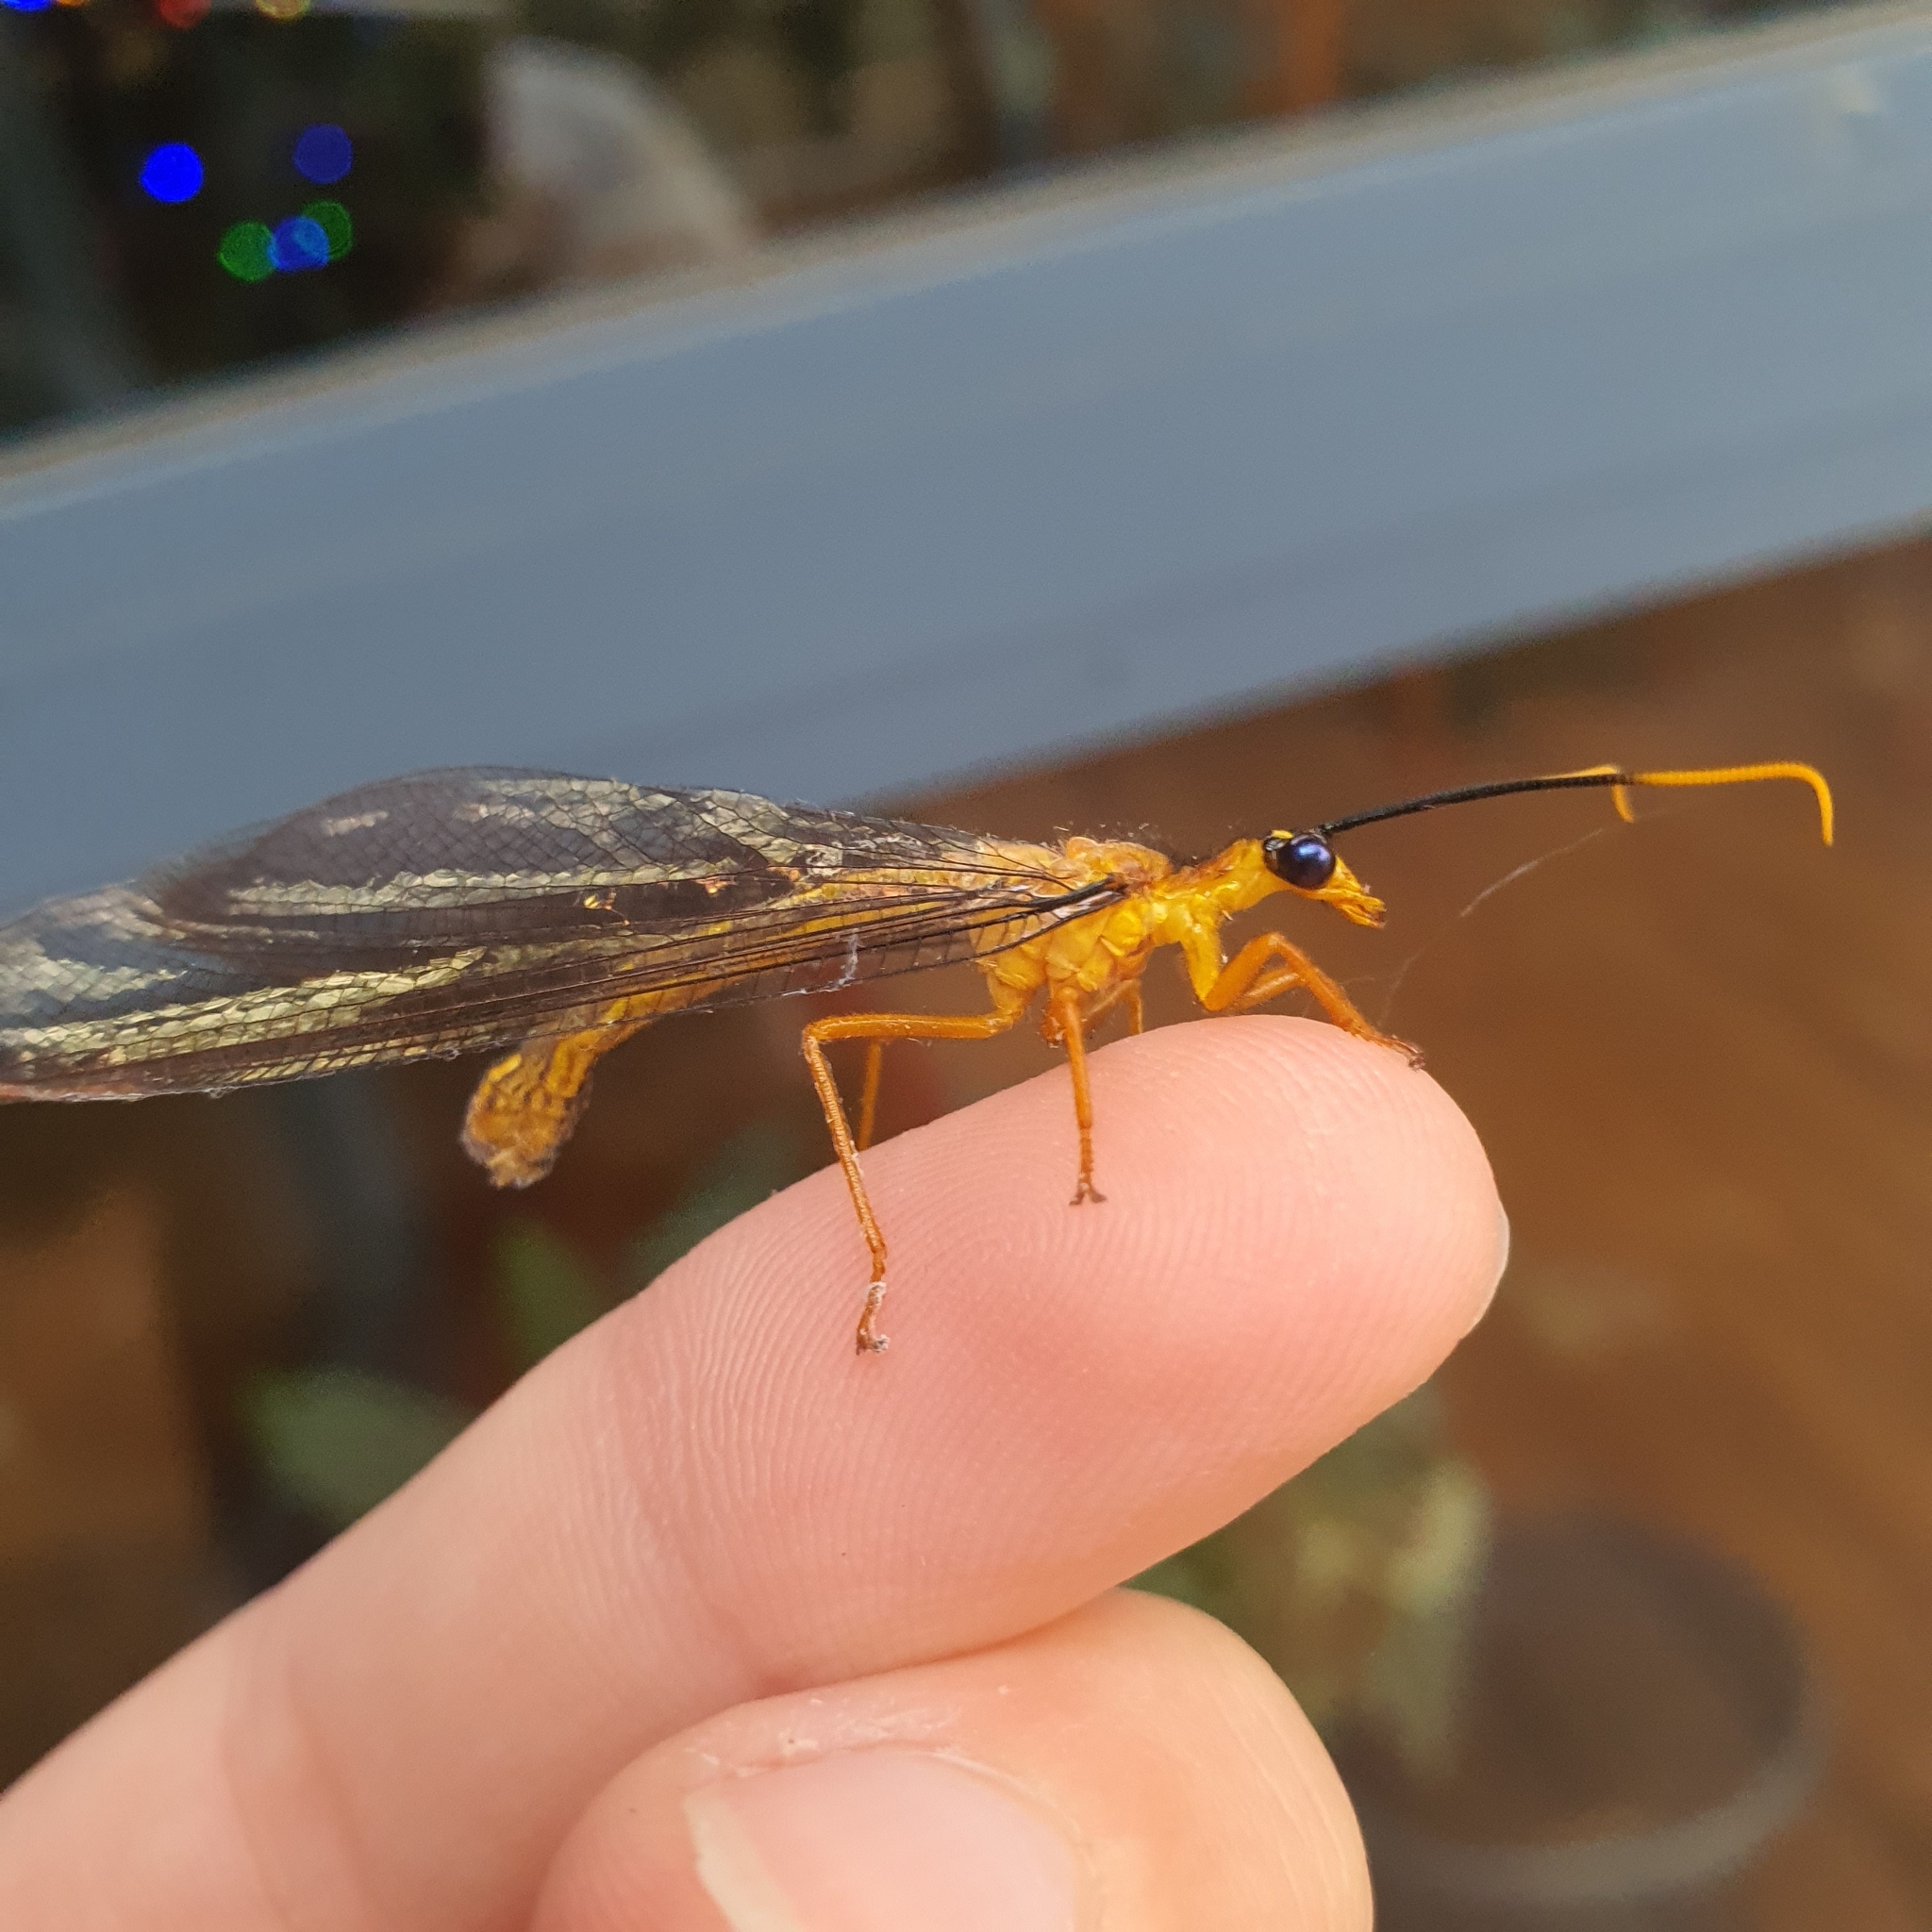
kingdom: Animalia
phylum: Arthropoda
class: Insecta
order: Neuroptera
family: Nymphidae
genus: Nymphes
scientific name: Nymphes myrmeleonoides
